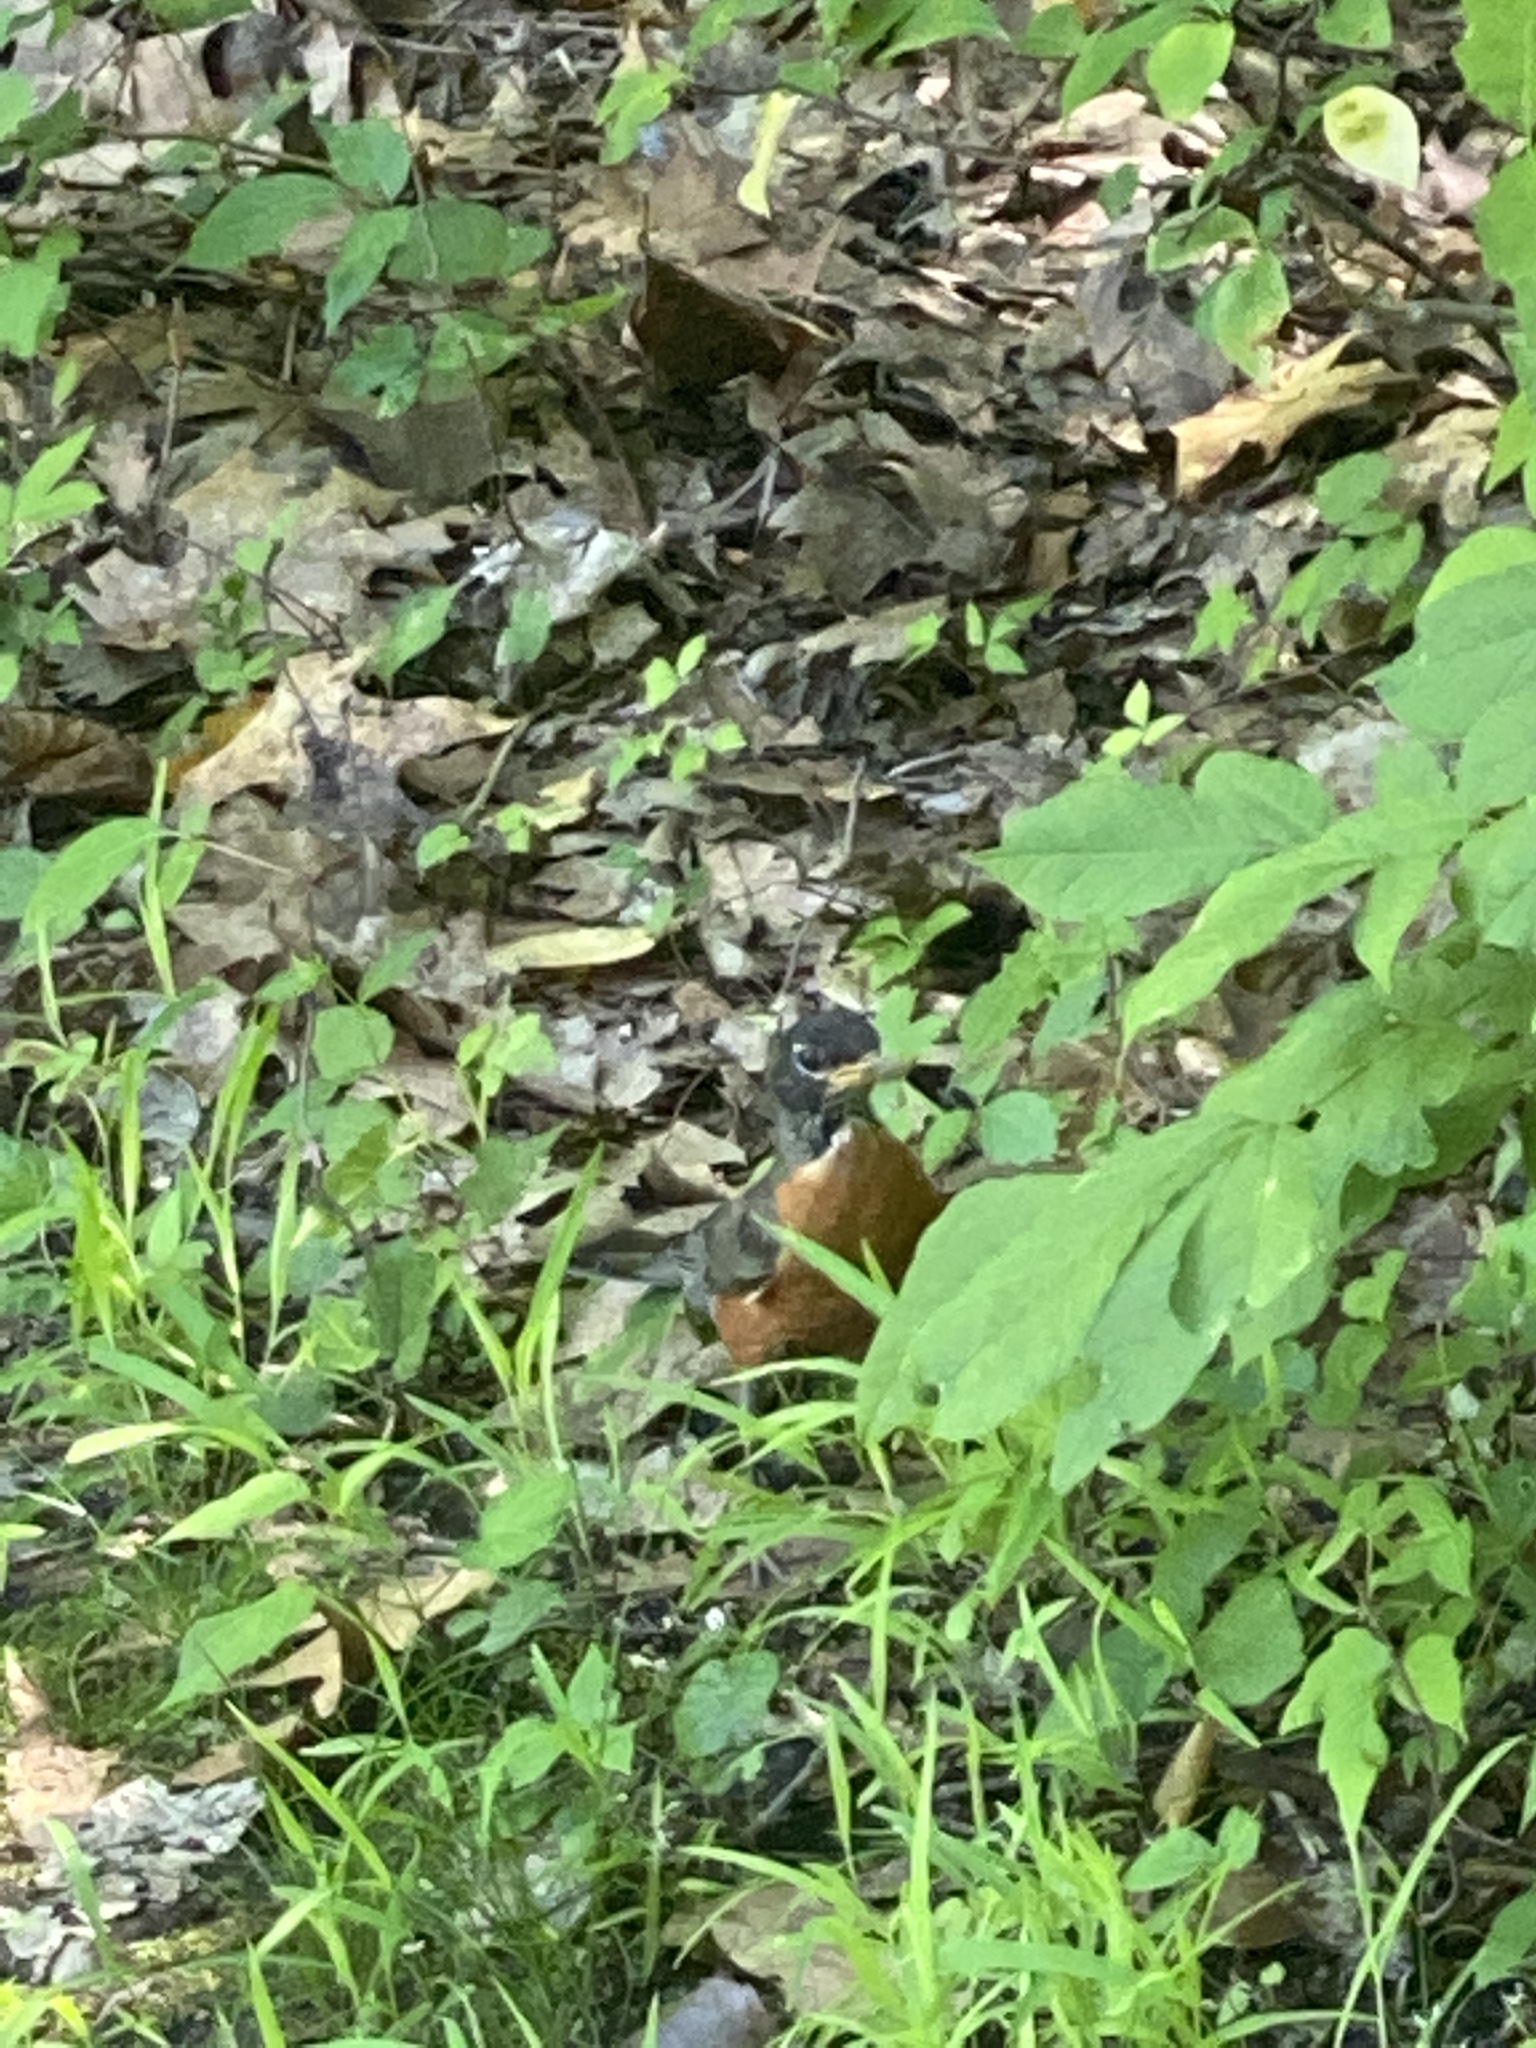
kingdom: Animalia
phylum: Chordata
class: Aves
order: Passeriformes
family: Turdidae
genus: Turdus
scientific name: Turdus migratorius
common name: American robin
